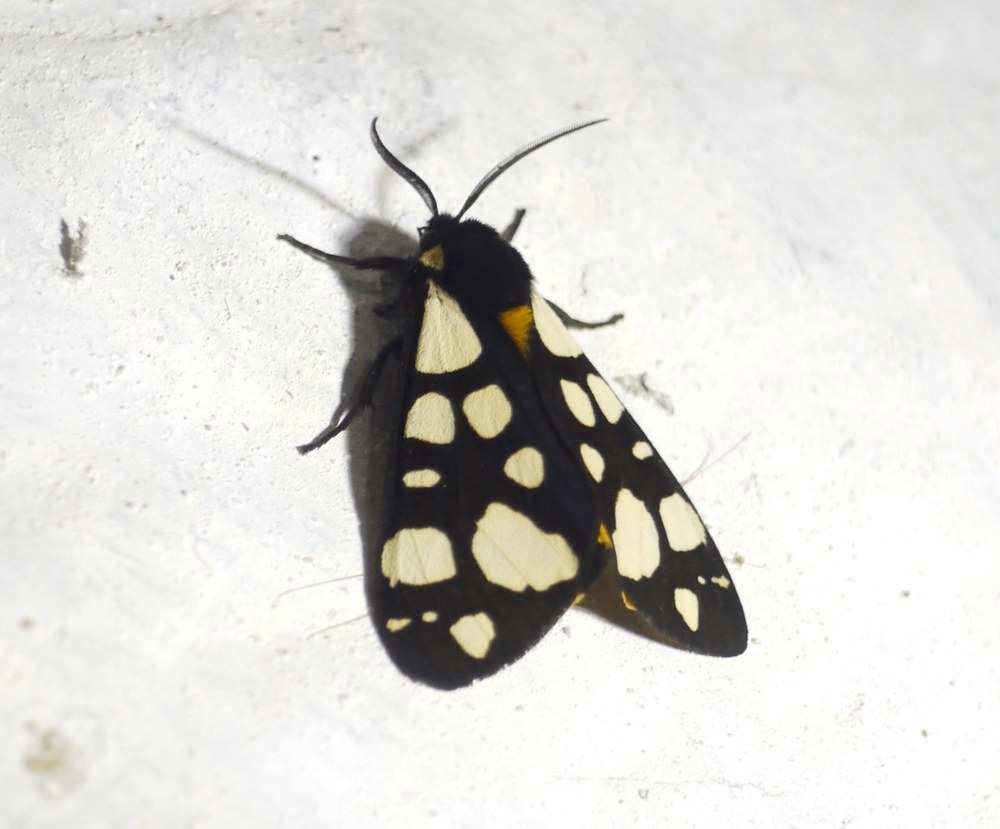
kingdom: Animalia
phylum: Arthropoda
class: Insecta
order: Lepidoptera
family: Erebidae
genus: Epicallia
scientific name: Epicallia villica
